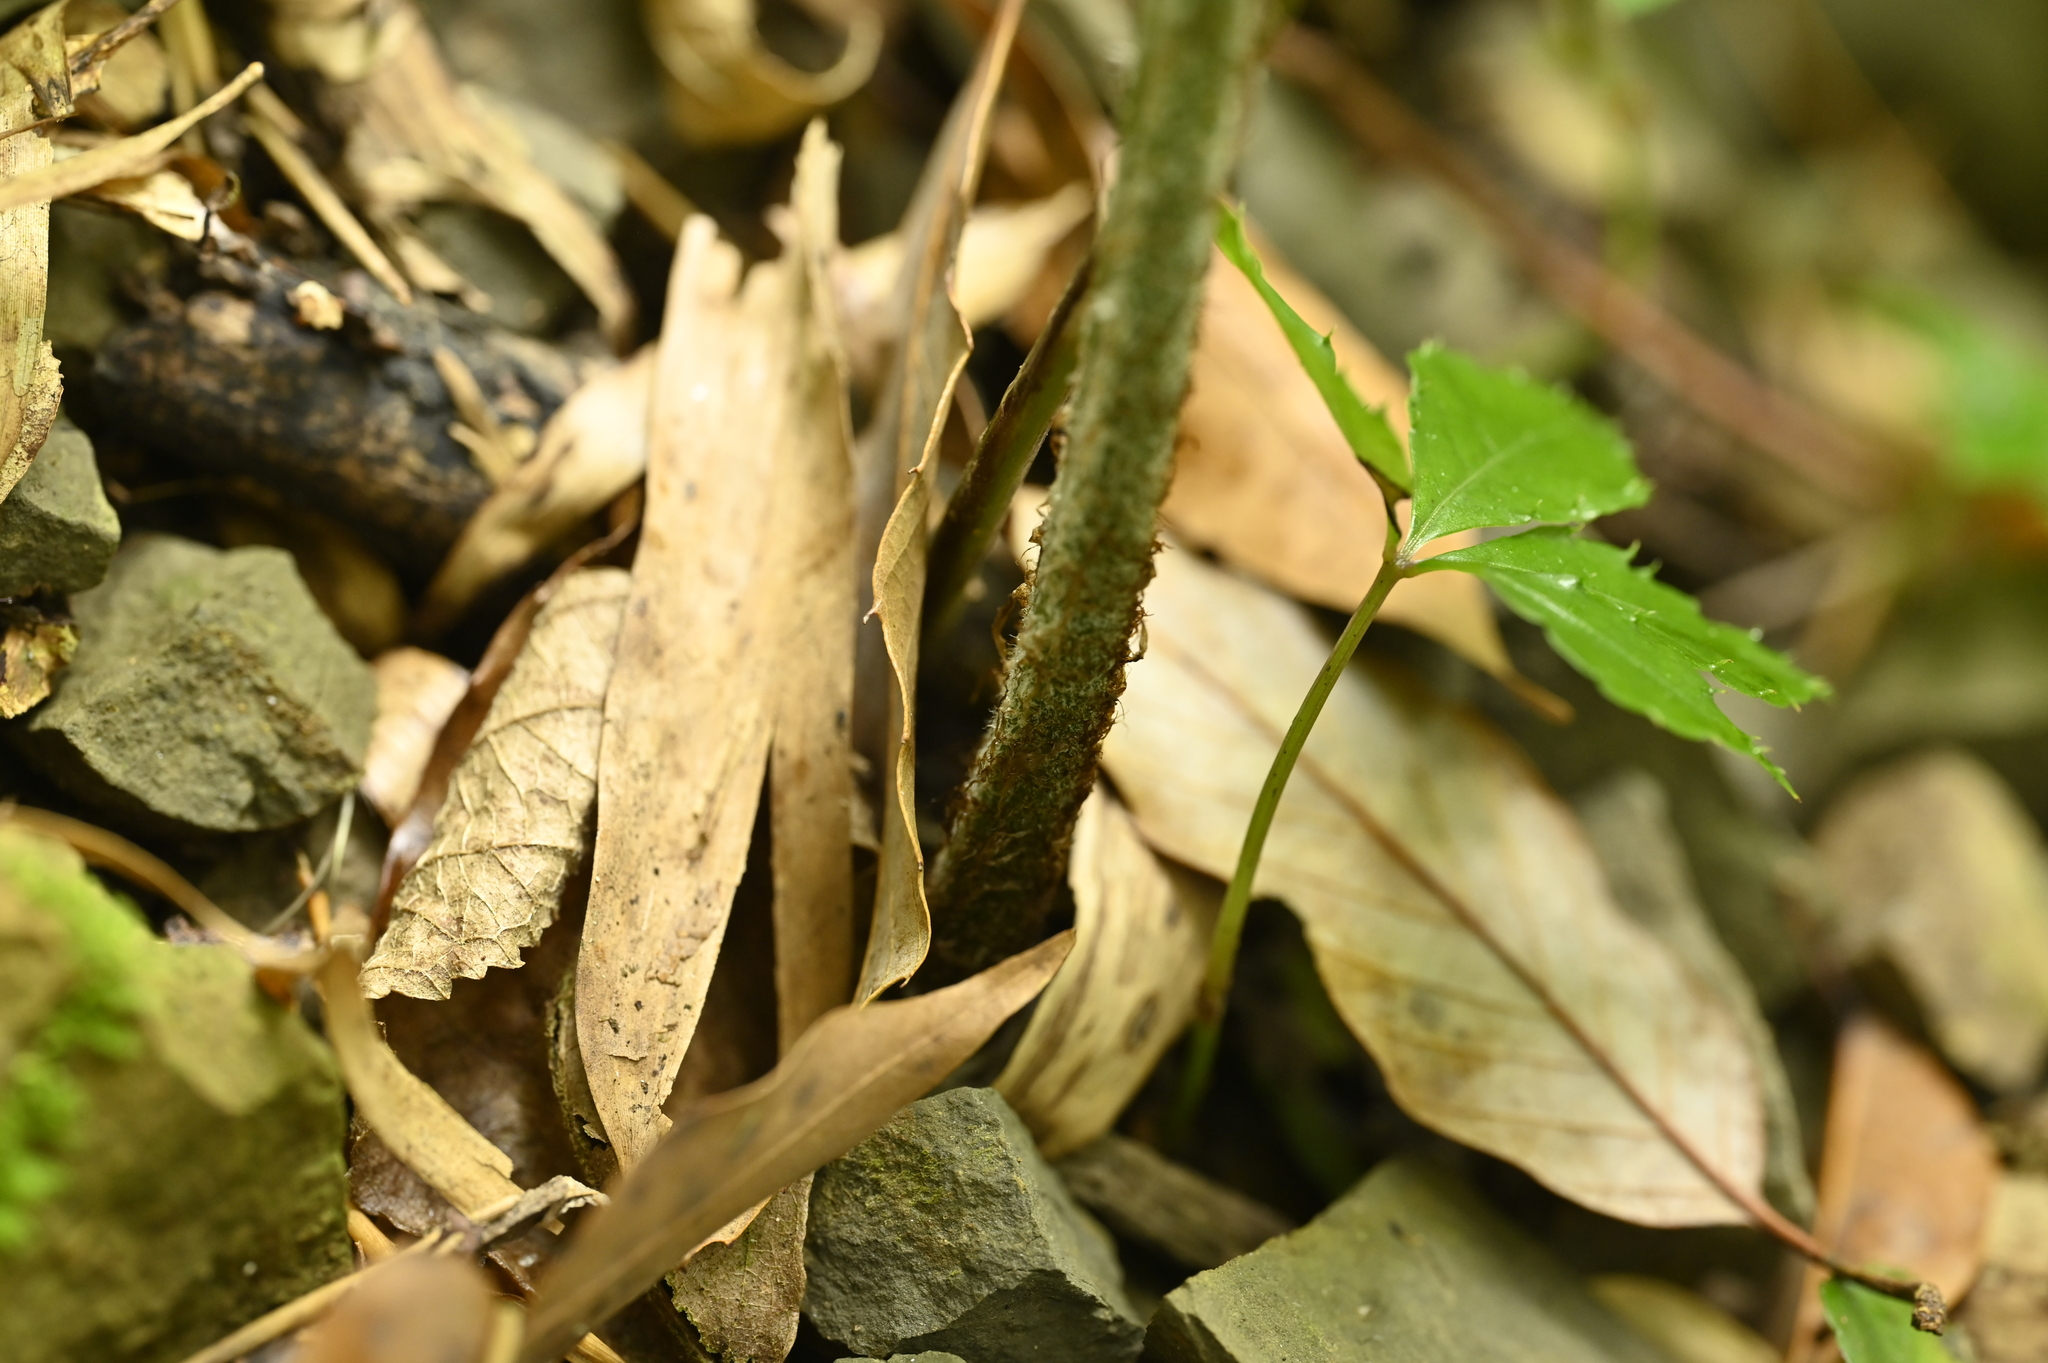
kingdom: Plantae
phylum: Tracheophyta
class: Polypodiopsida
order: Polypodiales
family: Pteridaceae
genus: Coniogramme
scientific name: Coniogramme japonica
